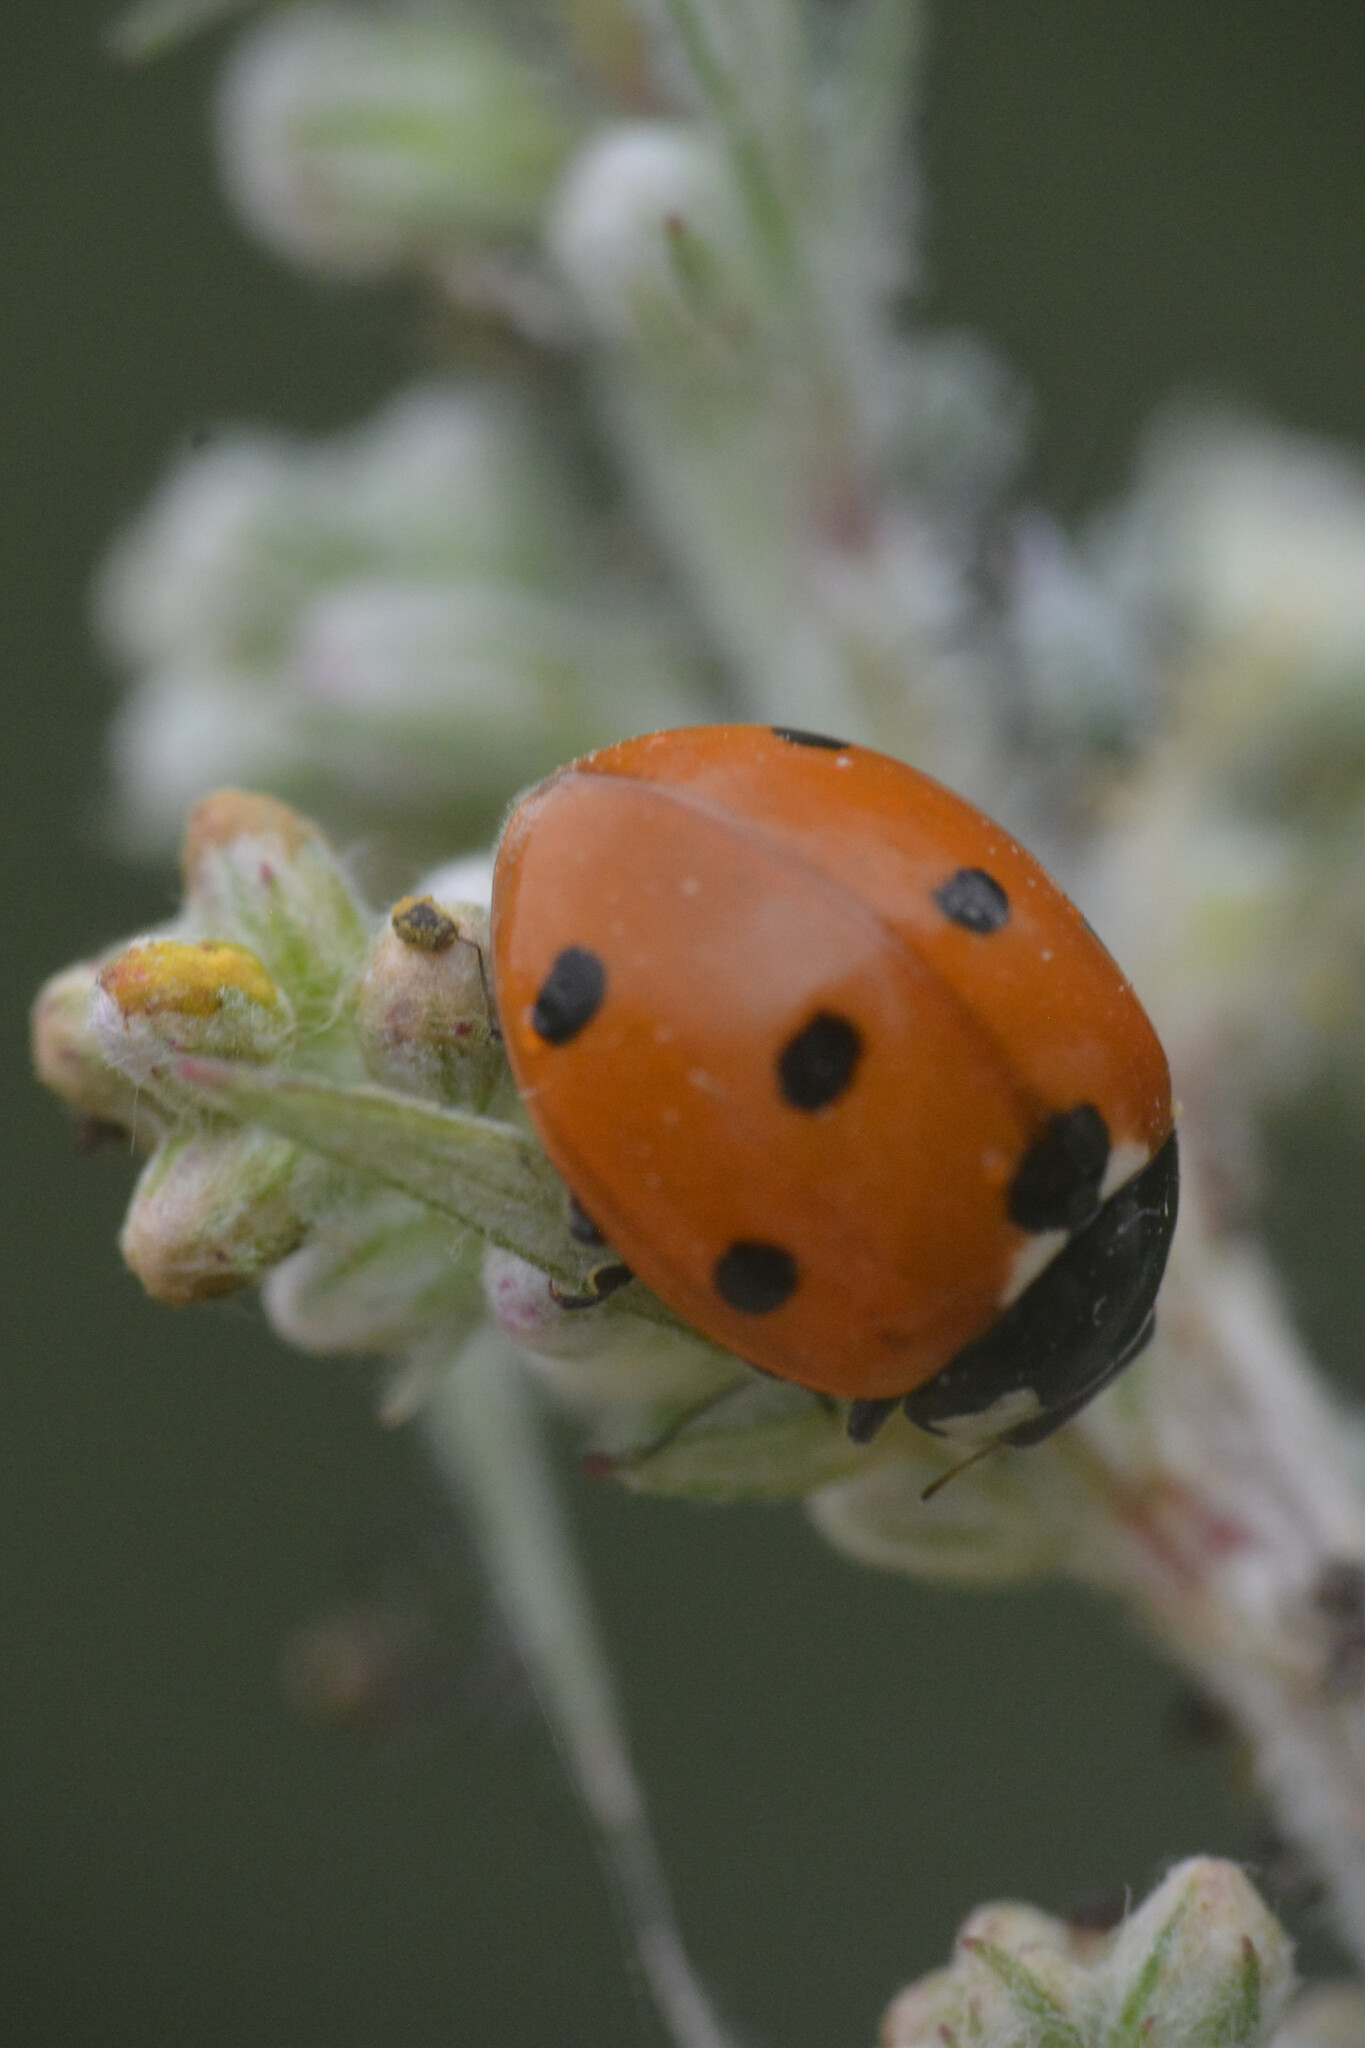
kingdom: Animalia
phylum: Arthropoda
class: Insecta
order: Coleoptera
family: Coccinellidae
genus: Coccinella
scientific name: Coccinella septempunctata
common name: Sevenspotted lady beetle
